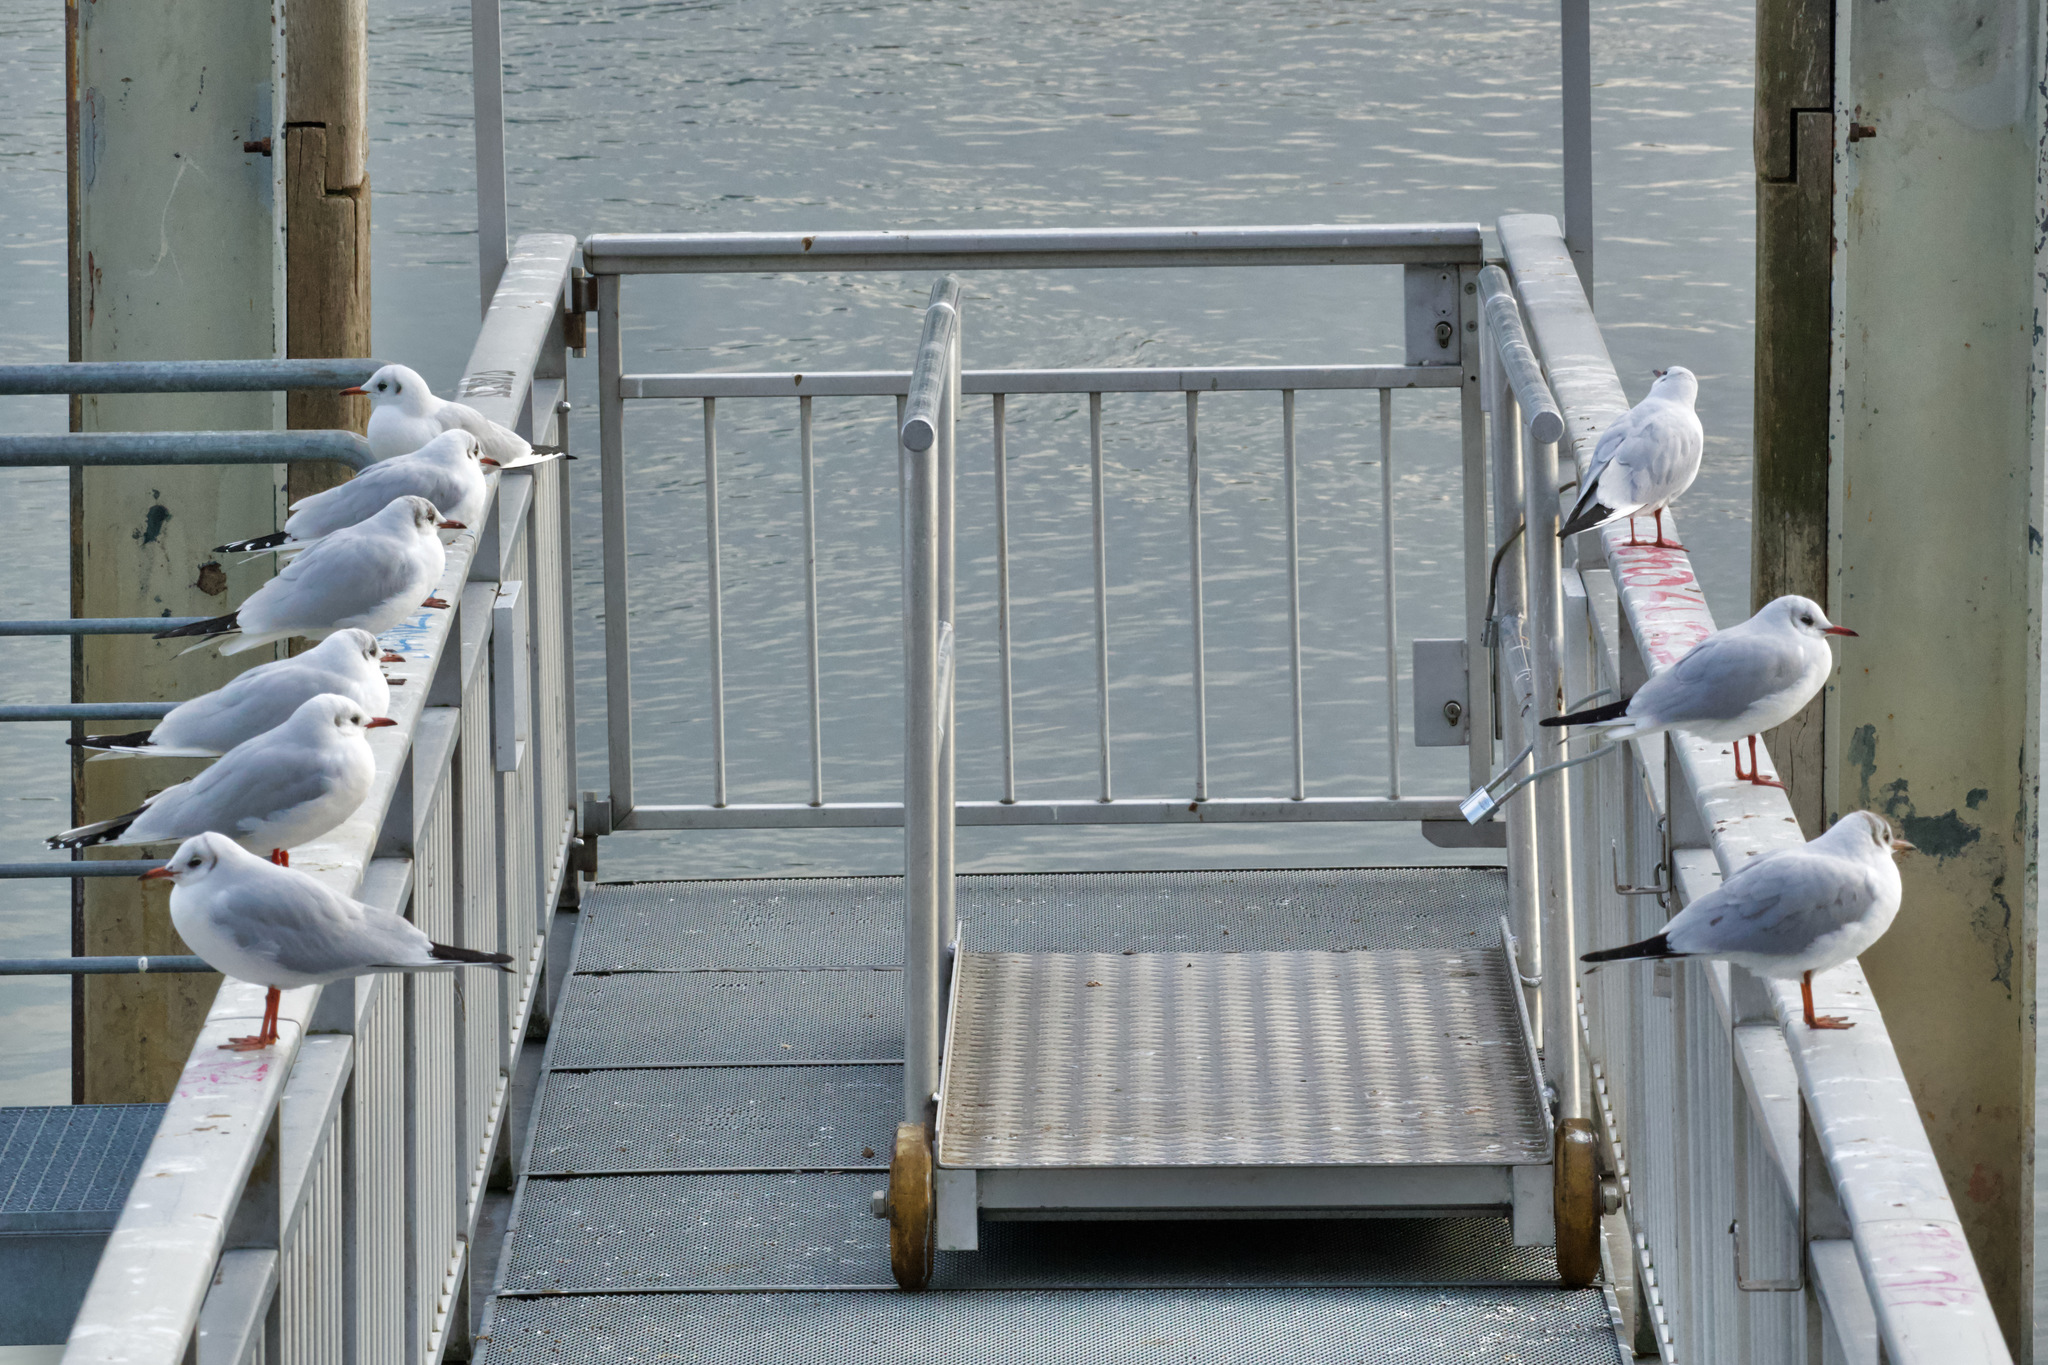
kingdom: Animalia
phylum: Chordata
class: Aves
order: Charadriiformes
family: Laridae
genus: Chroicocephalus
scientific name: Chroicocephalus ridibundus
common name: Black-headed gull
